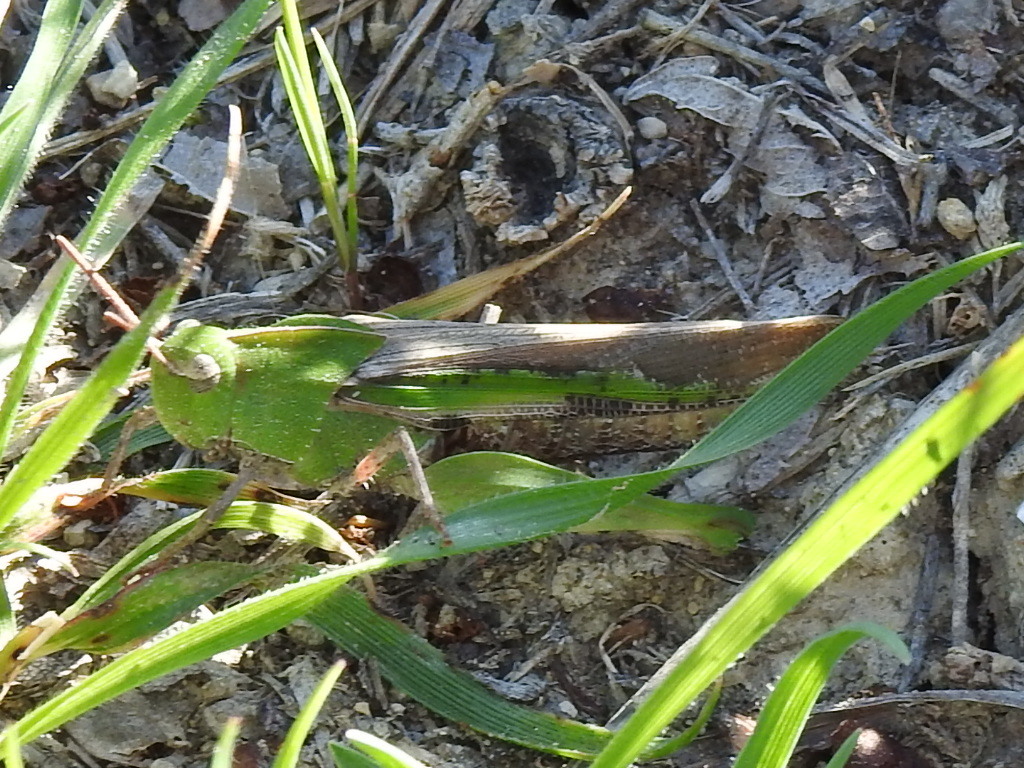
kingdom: Animalia
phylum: Arthropoda
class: Insecta
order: Orthoptera
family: Acrididae
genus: Chortophaga
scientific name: Chortophaga viridifasciata
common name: Green-striped grasshopper
